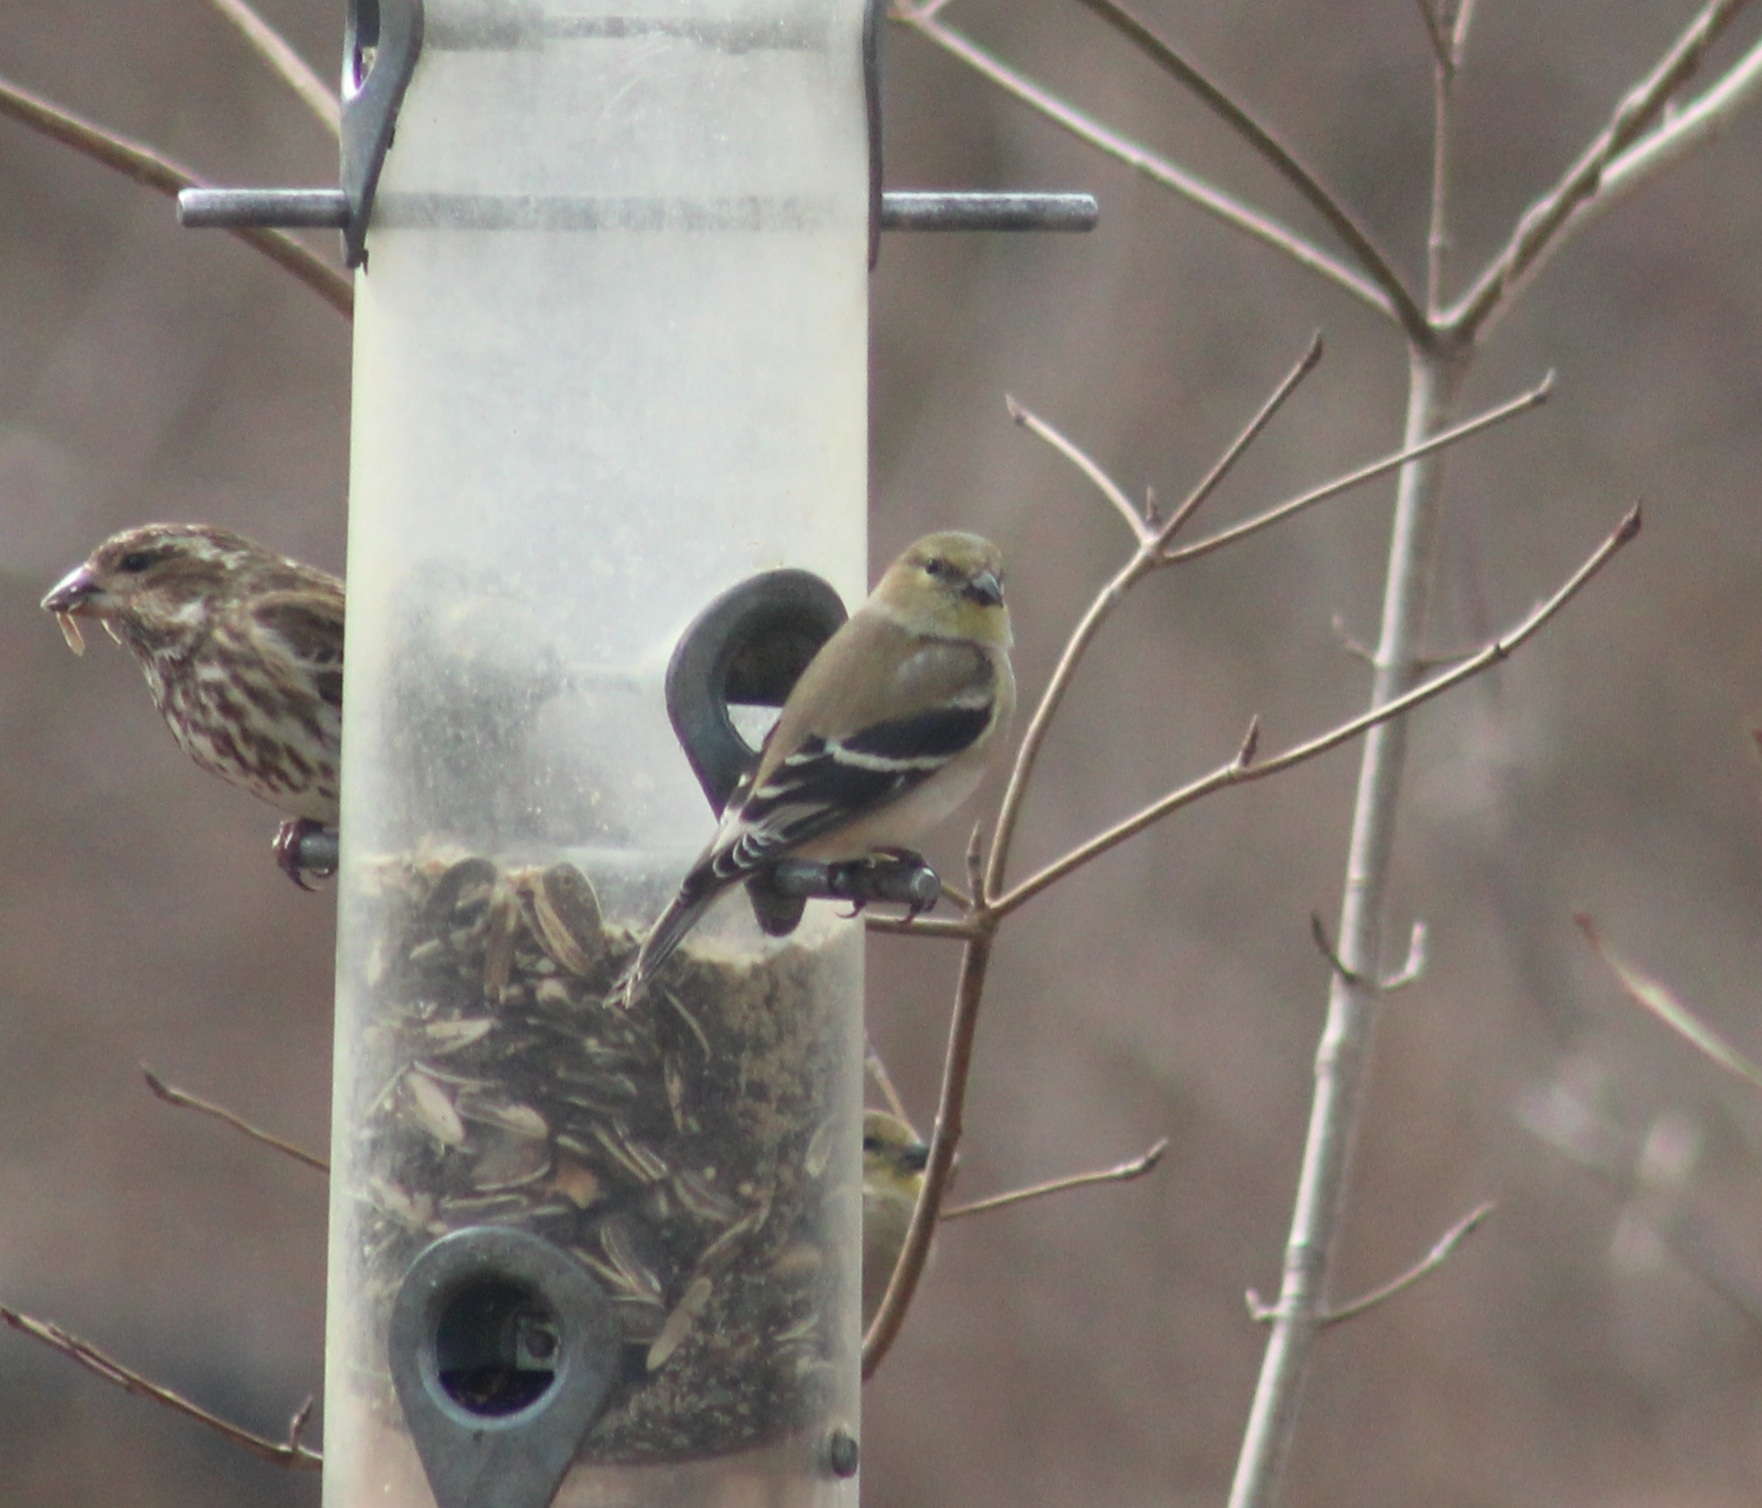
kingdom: Animalia
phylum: Chordata
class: Aves
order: Passeriformes
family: Fringillidae
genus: Spinus
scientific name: Spinus tristis
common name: American goldfinch
